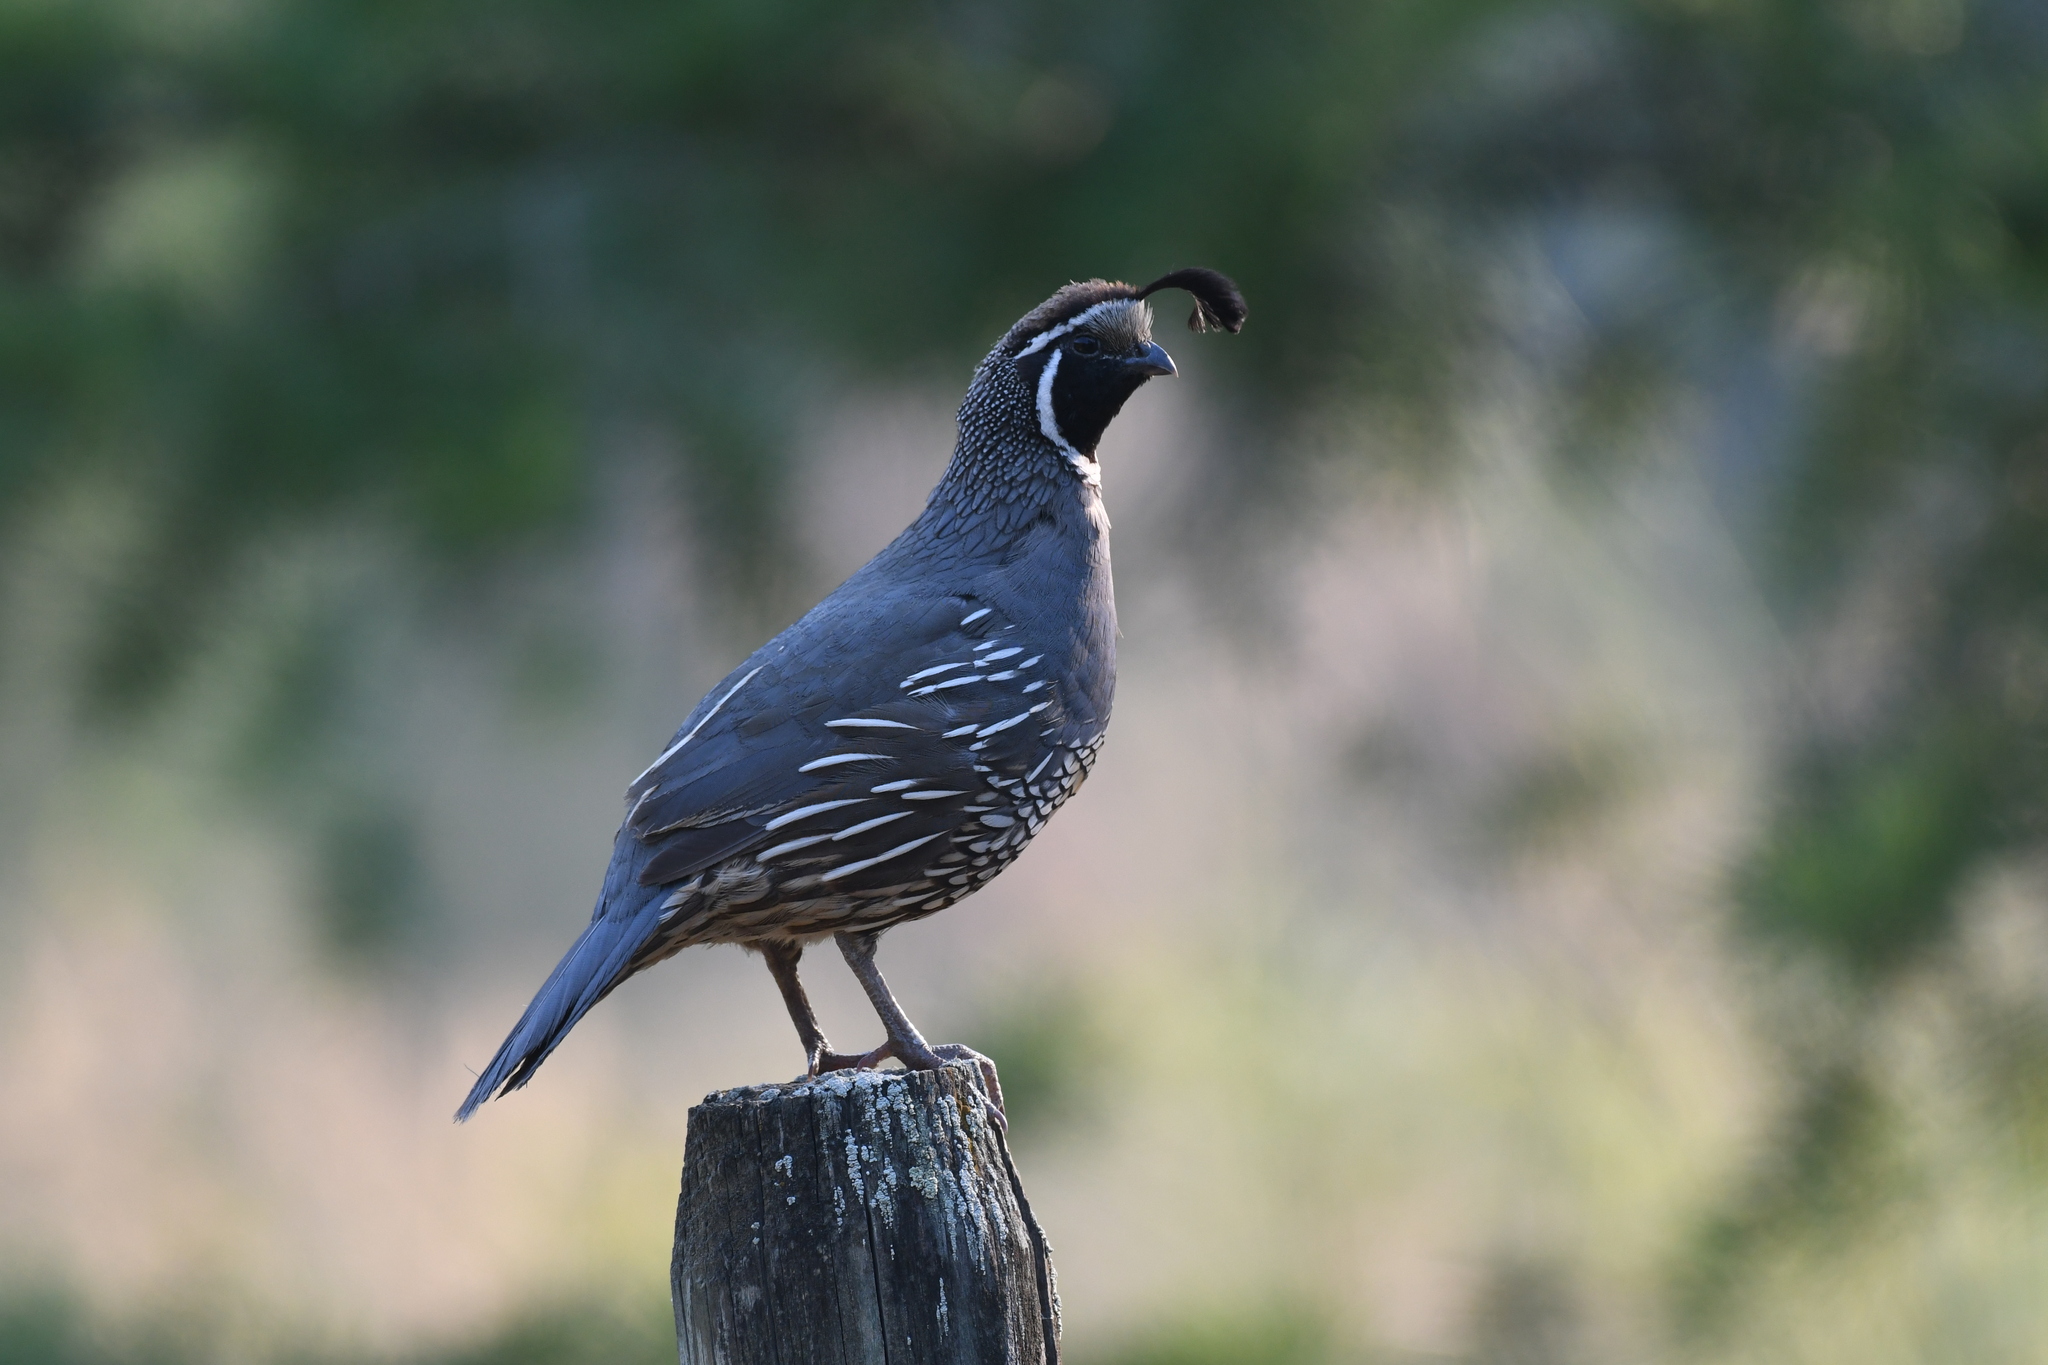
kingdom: Animalia
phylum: Chordata
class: Aves
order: Galliformes
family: Odontophoridae
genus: Callipepla
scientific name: Callipepla californica
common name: California quail
